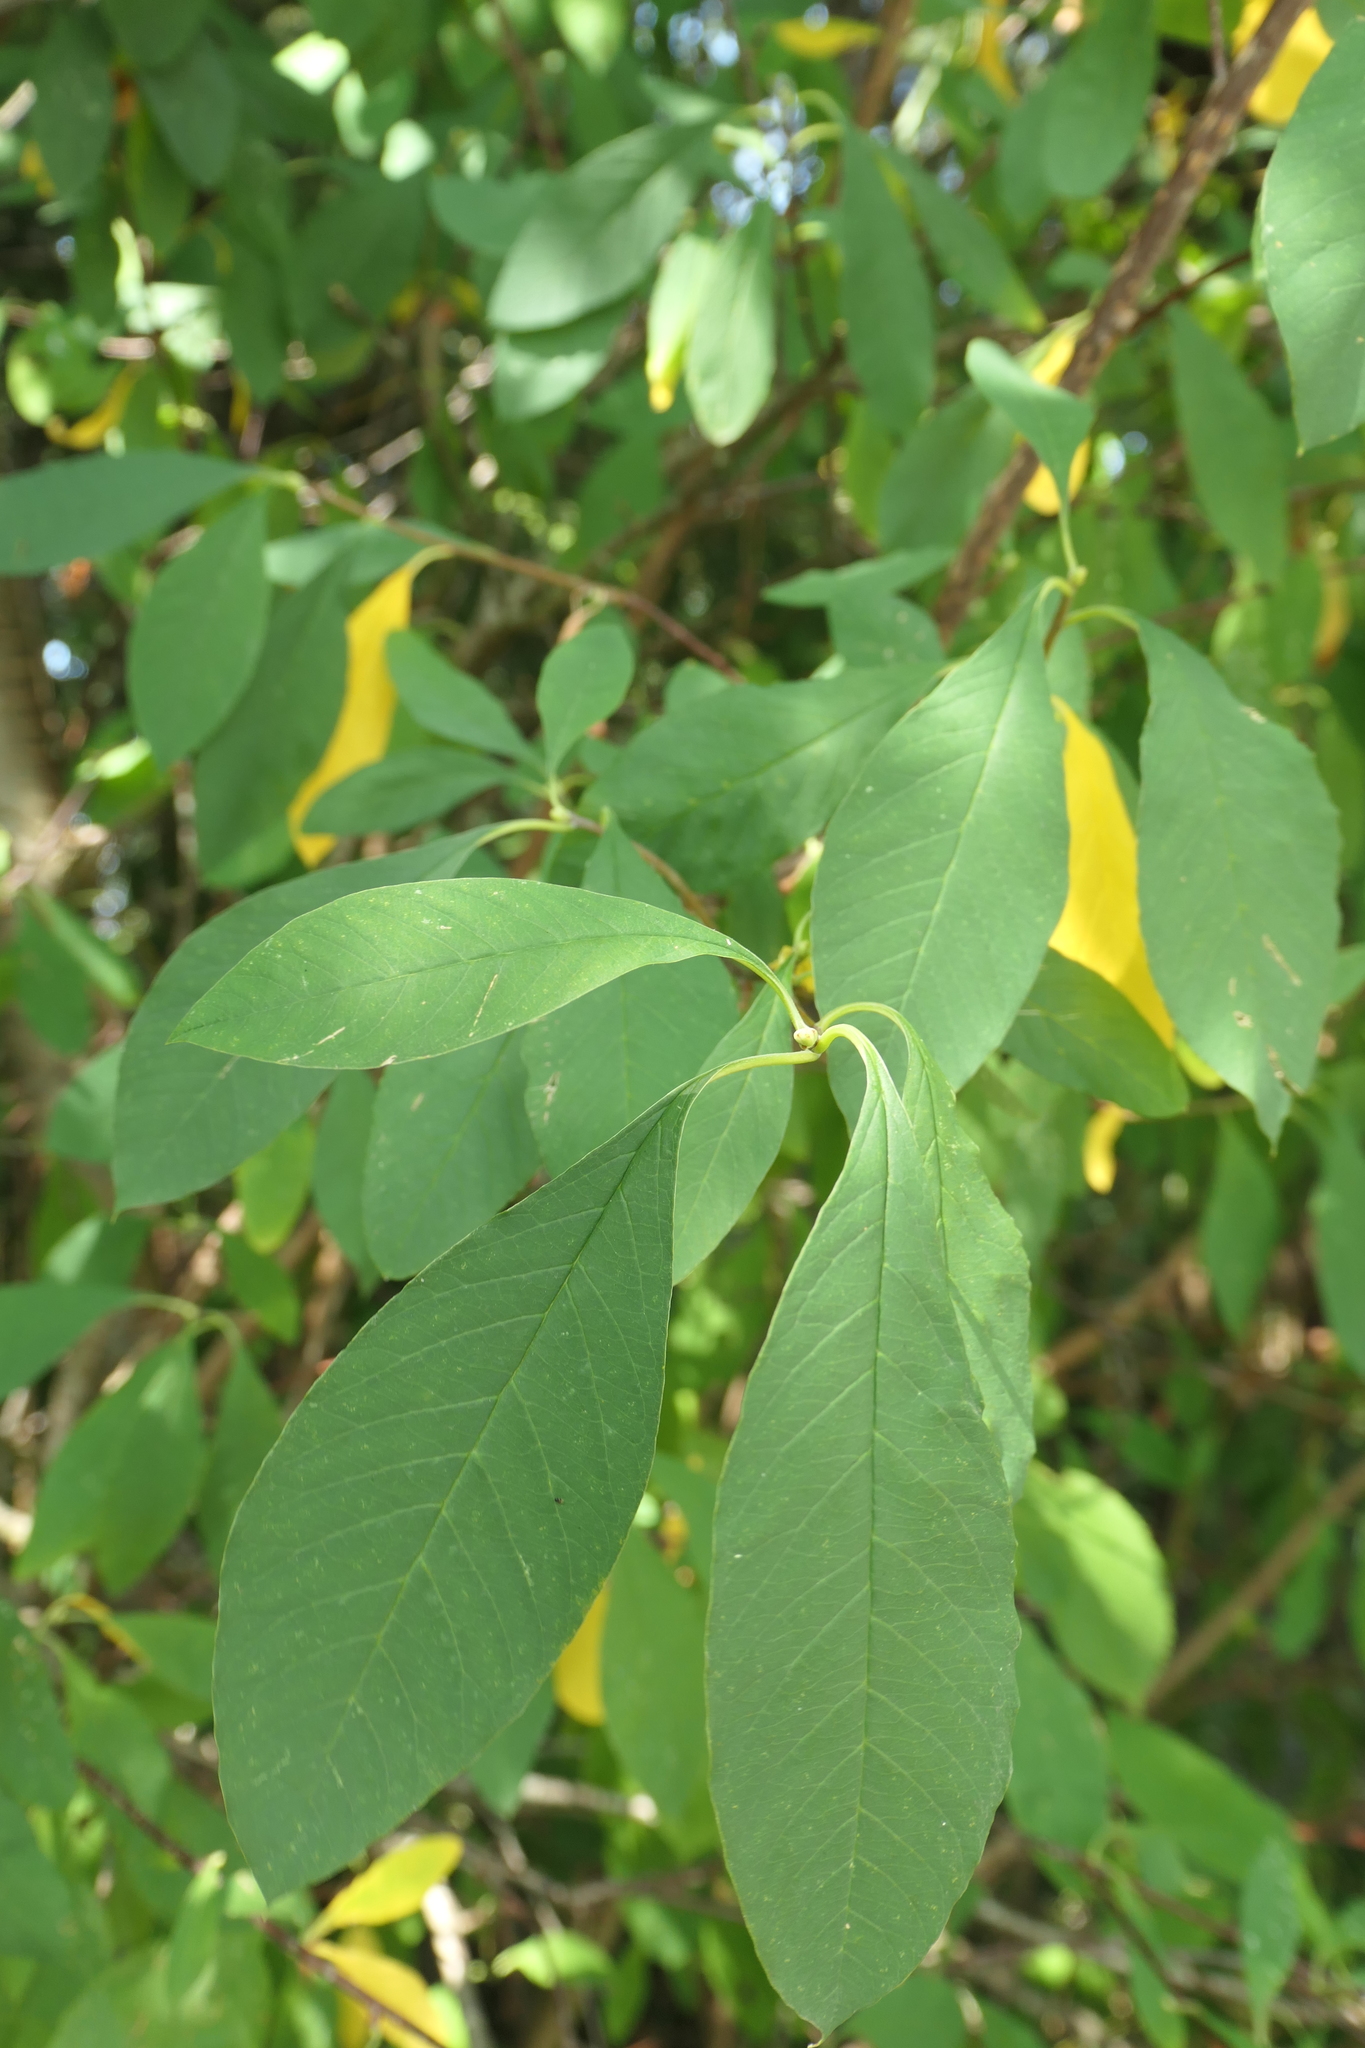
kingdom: Plantae
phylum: Tracheophyta
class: Magnoliopsida
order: Rosales
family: Rosaceae
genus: Oemleria
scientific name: Oemleria cerasiformis
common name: Osoberry
